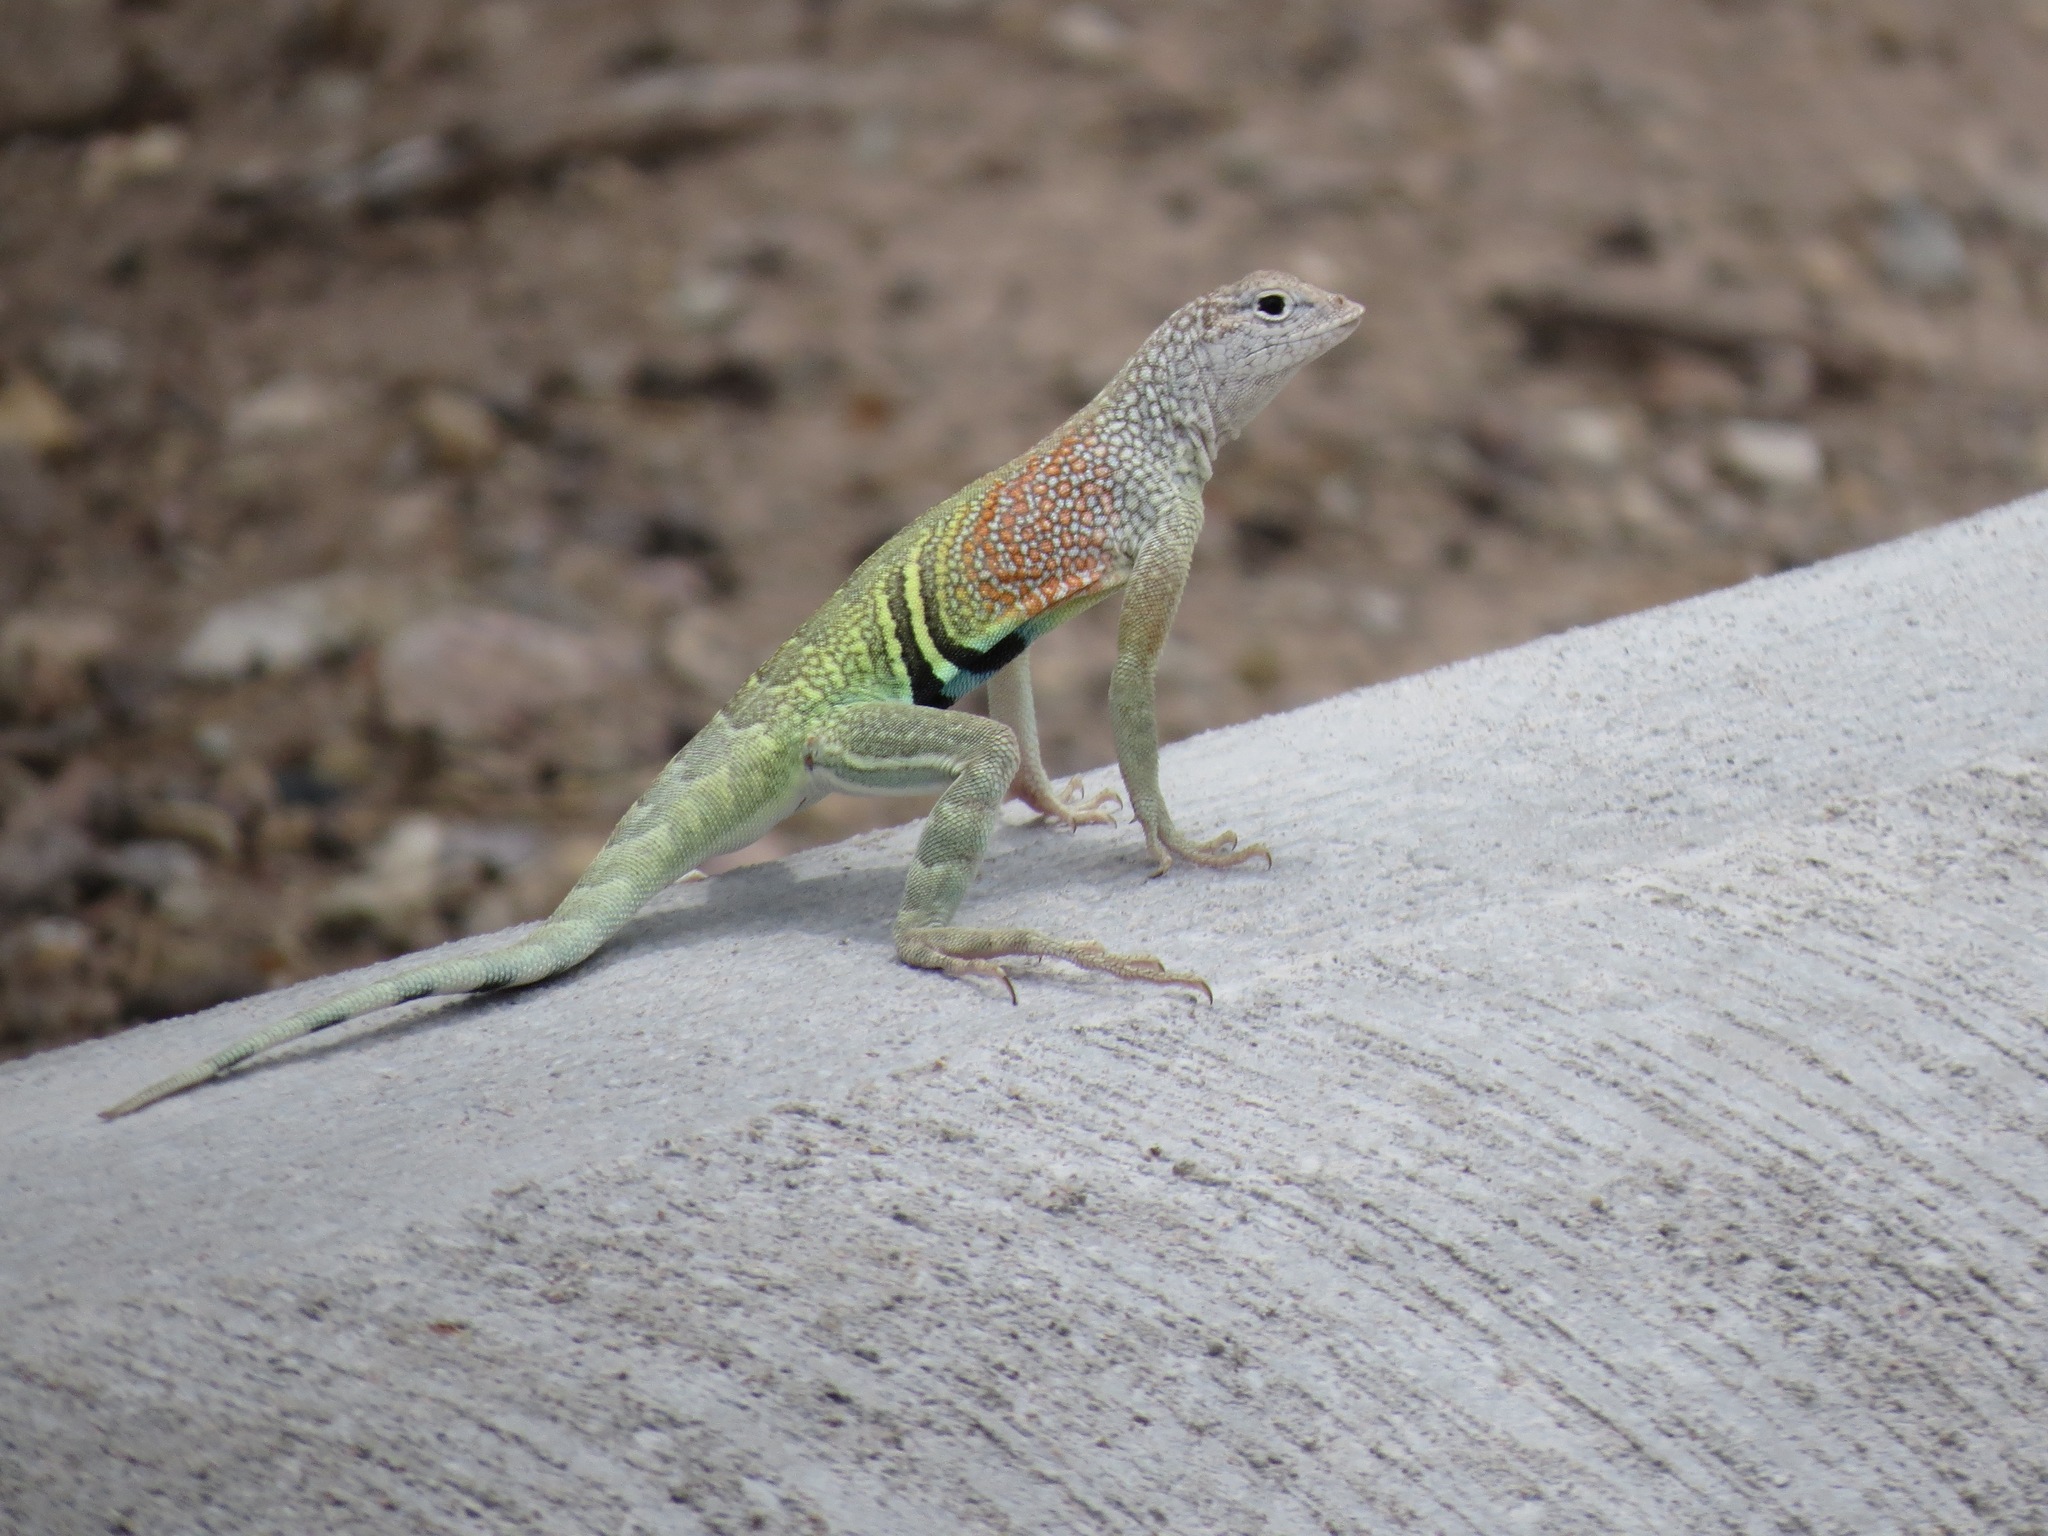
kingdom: Animalia
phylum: Chordata
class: Squamata
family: Phrynosomatidae
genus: Cophosaurus
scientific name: Cophosaurus texanus
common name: Greater earless lizard
